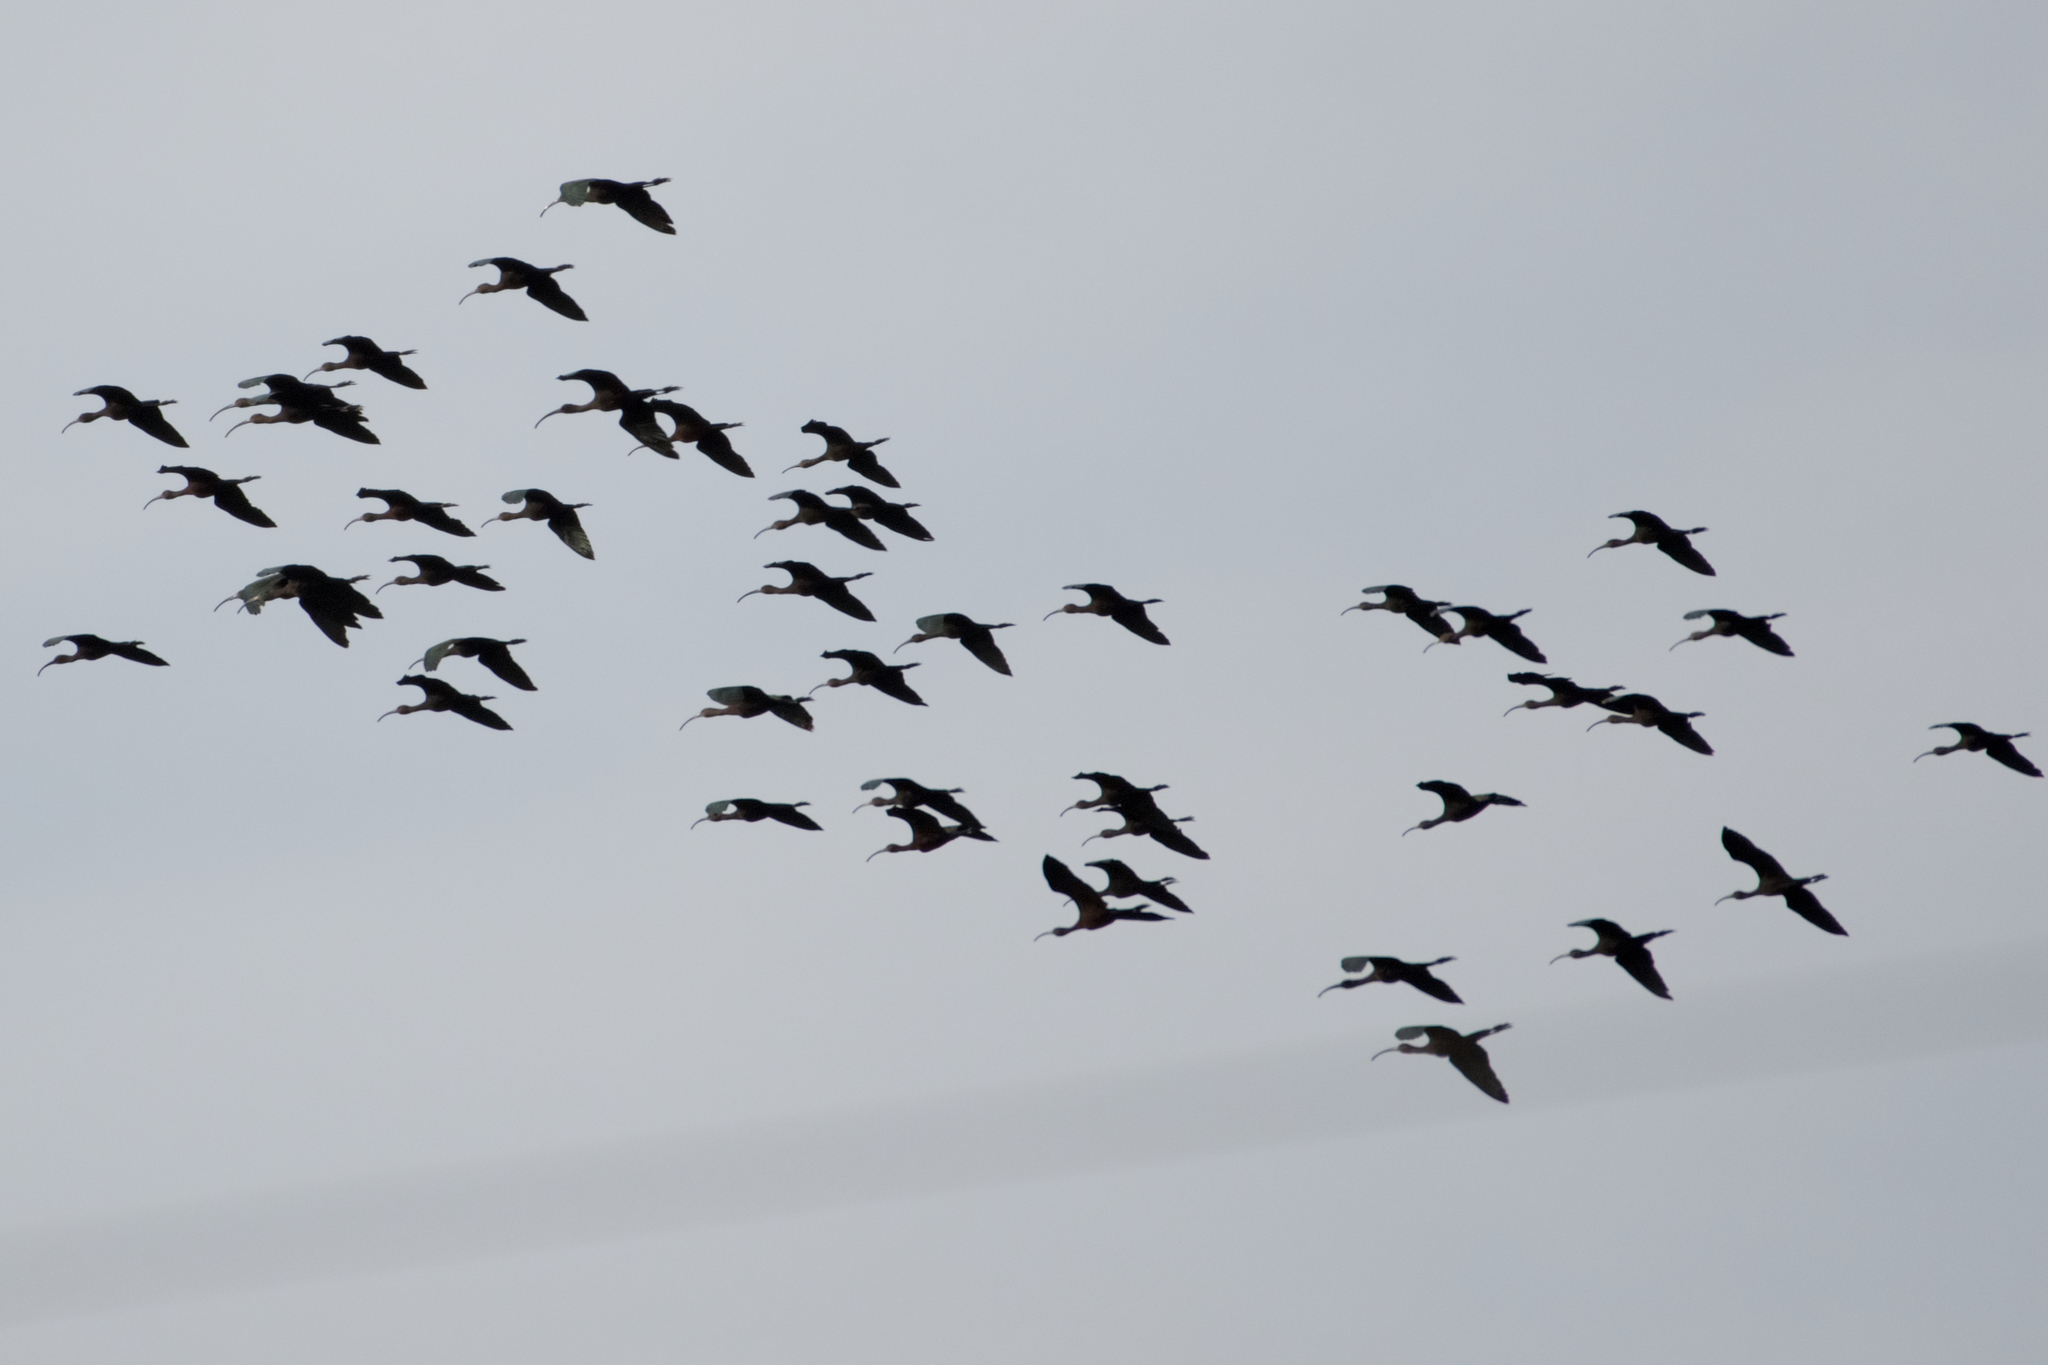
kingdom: Animalia
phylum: Chordata
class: Aves
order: Pelecaniformes
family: Threskiornithidae
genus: Plegadis
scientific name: Plegadis chihi
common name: White-faced ibis
